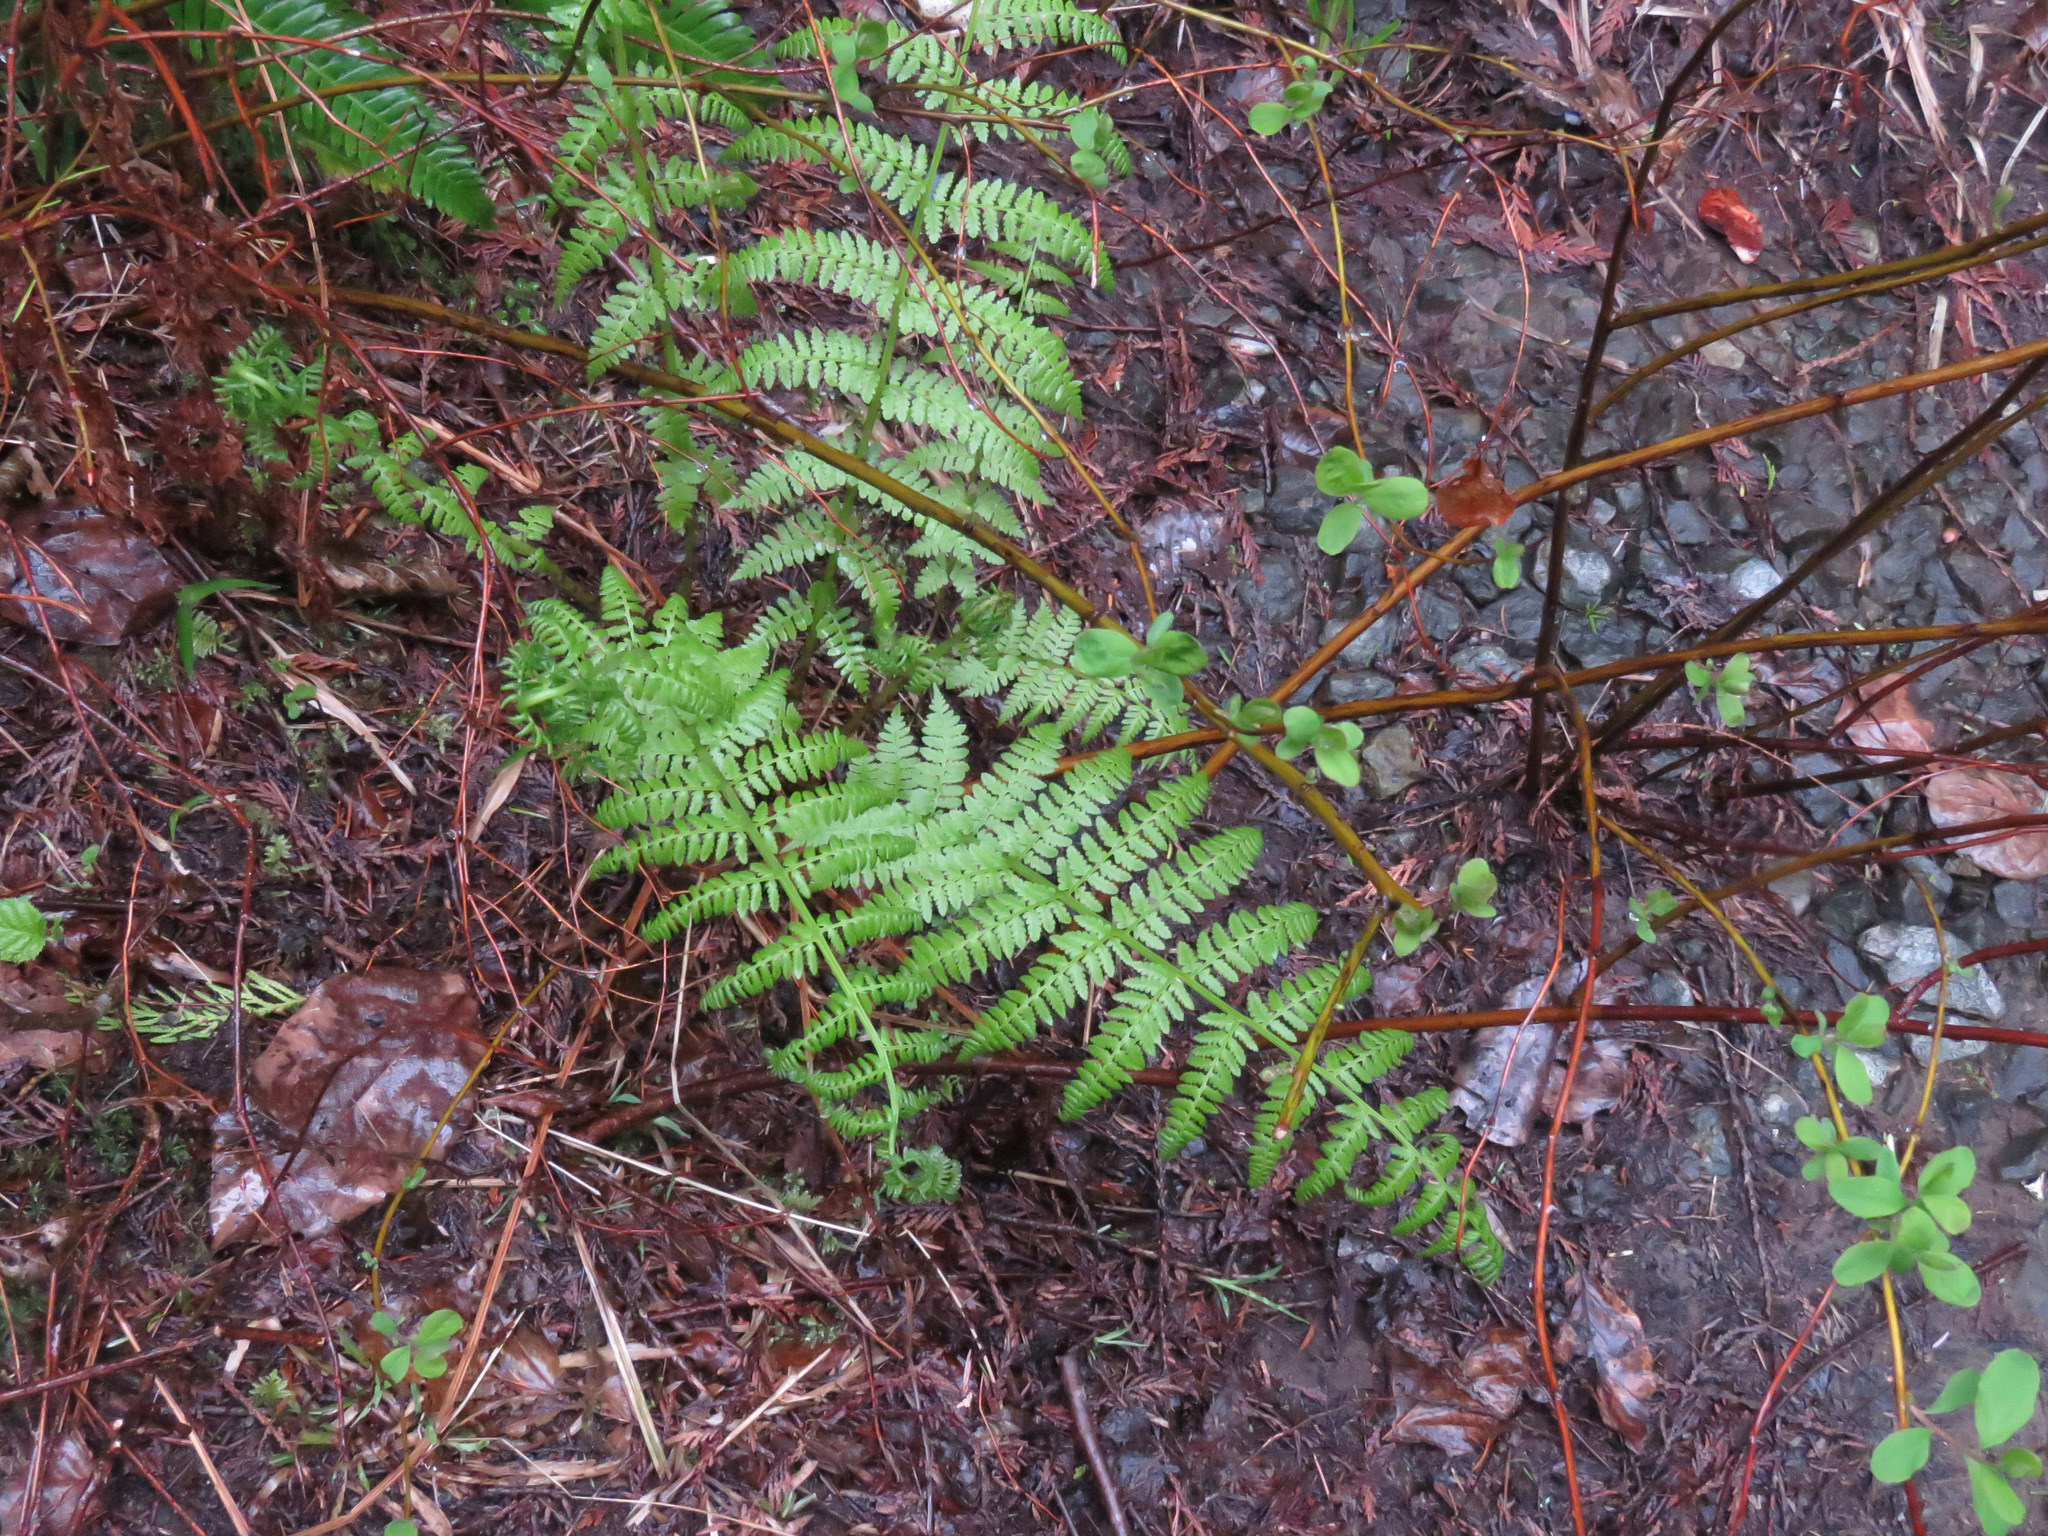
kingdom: Plantae
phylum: Tracheophyta
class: Polypodiopsida
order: Polypodiales
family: Athyriaceae
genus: Athyrium
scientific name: Athyrium filix-femina
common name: Lady fern
